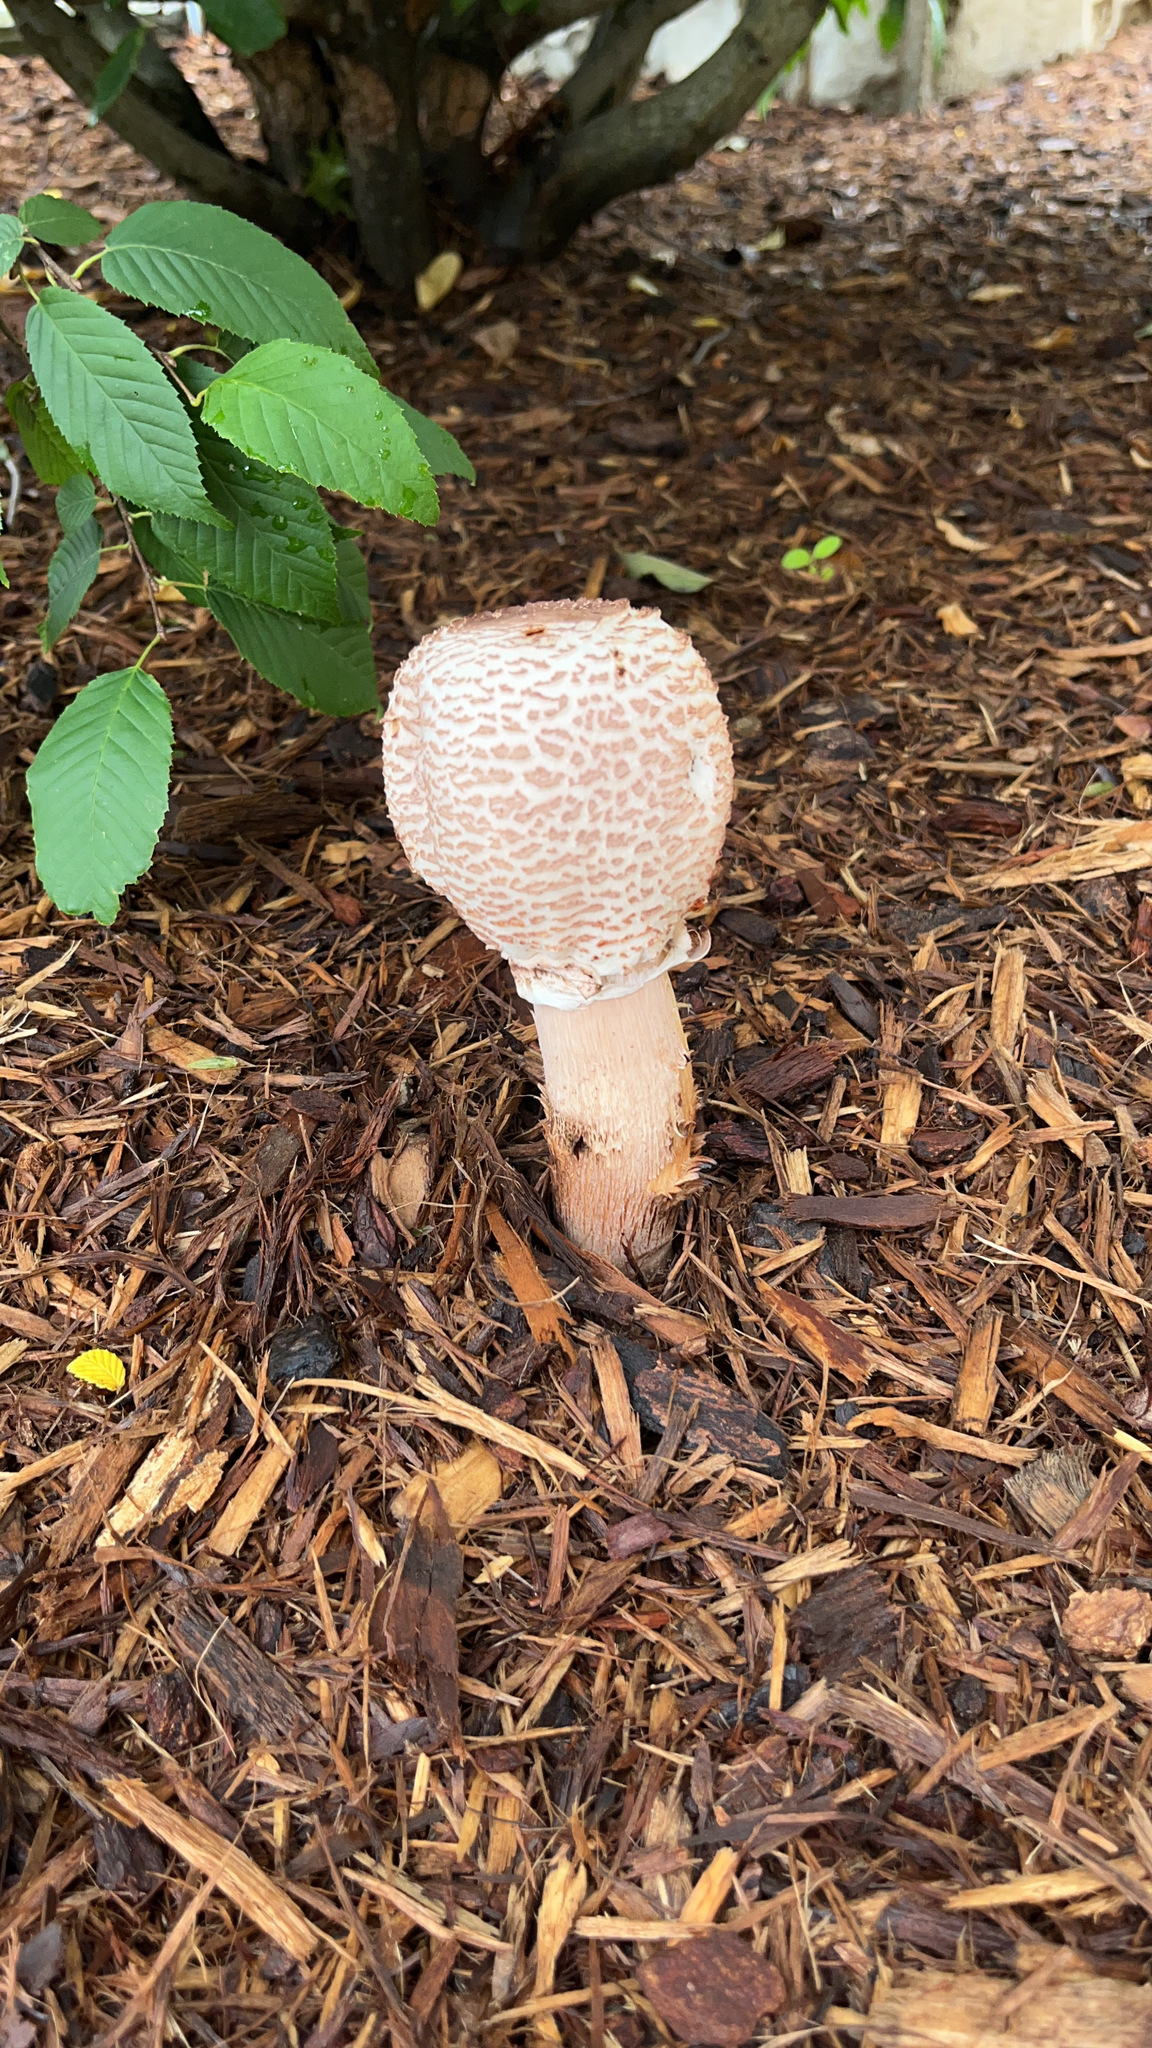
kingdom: Fungi
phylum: Basidiomycota
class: Agaricomycetes
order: Agaricales
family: Agaricaceae
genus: Leucoagaricus
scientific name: Leucoagaricus americanus
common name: Reddening lepiota
